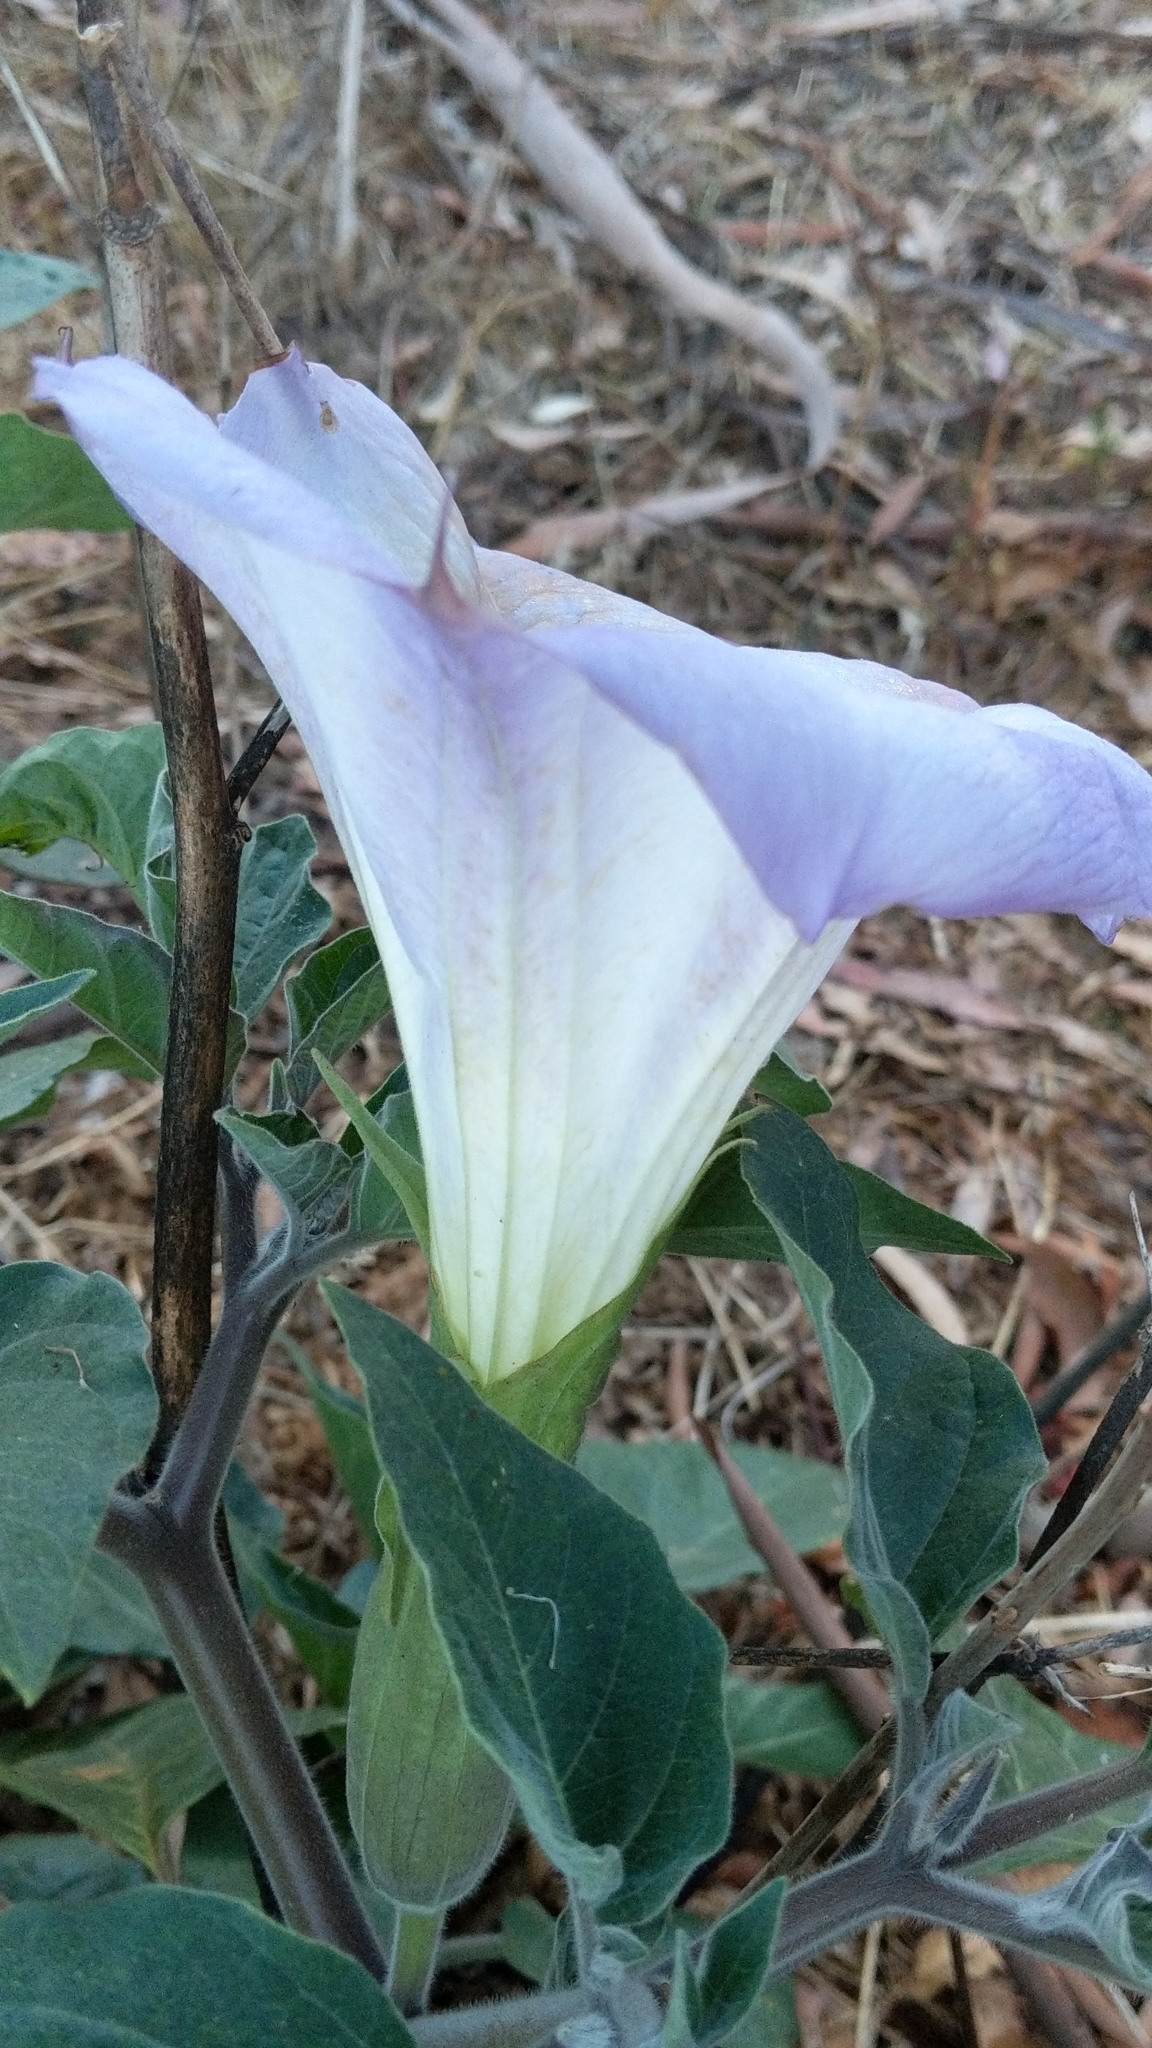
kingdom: Plantae
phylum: Tracheophyta
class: Magnoliopsida
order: Solanales
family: Solanaceae
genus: Datura
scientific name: Datura wrightii
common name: Sacred thorn-apple
